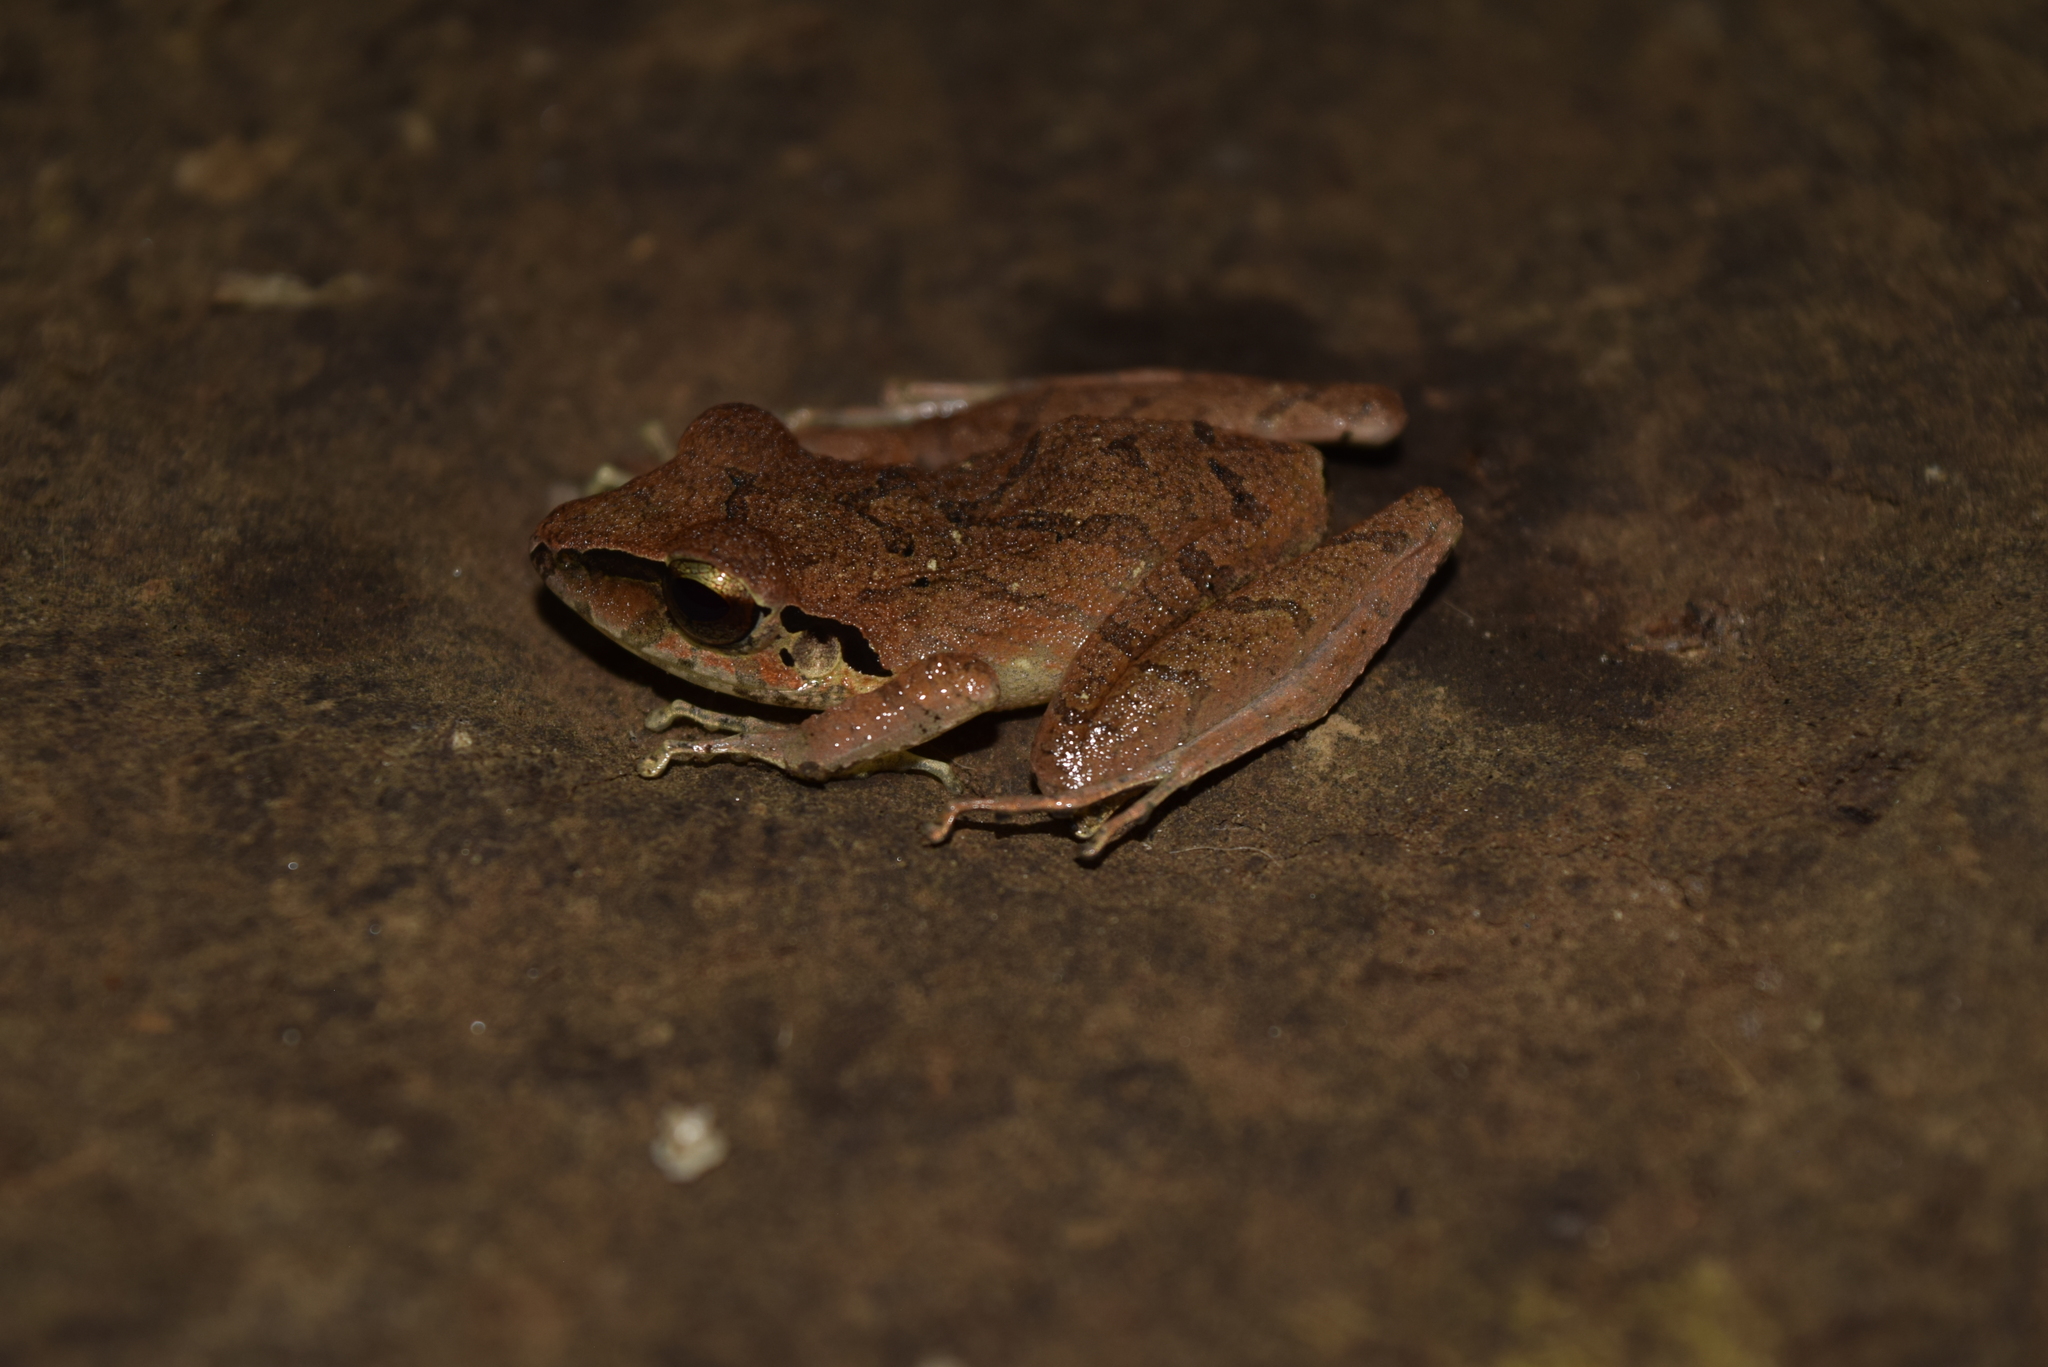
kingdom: Animalia
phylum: Chordata
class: Amphibia
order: Anura
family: Craugastoridae
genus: Pristimantis
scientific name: Pristimantis achatinus
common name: Cachabi robber frog
